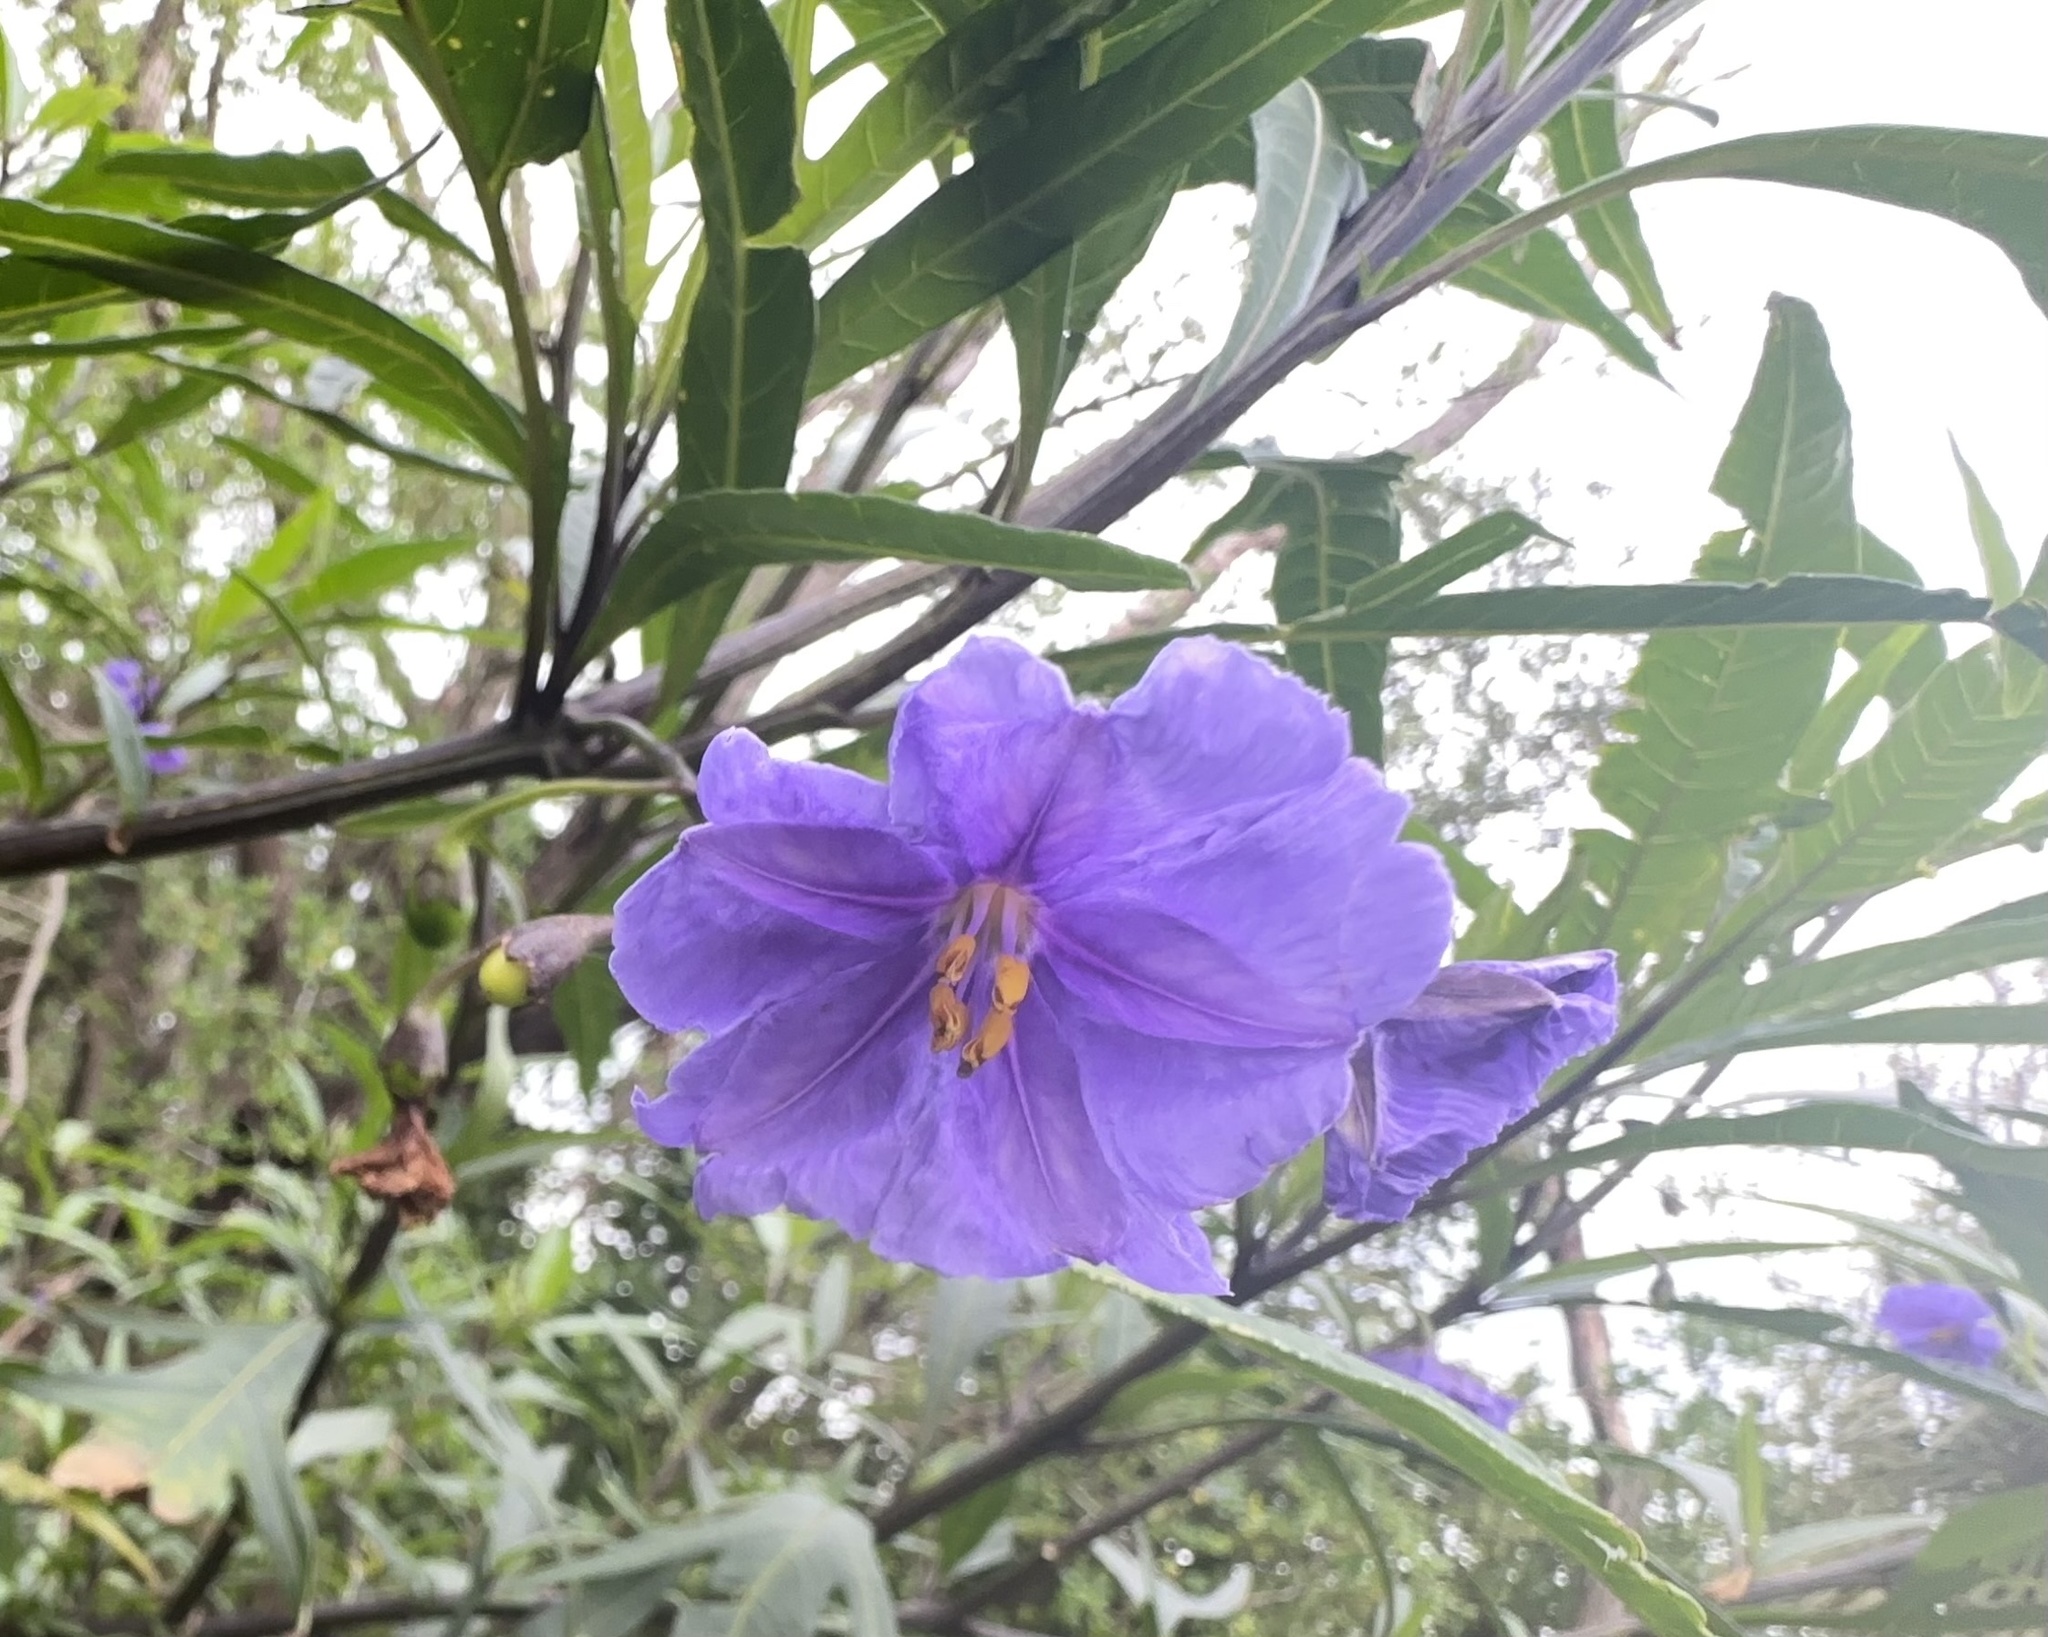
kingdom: Plantae
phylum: Tracheophyta
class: Magnoliopsida
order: Solanales
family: Solanaceae
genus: Solanum
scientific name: Solanum laciniatum
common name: Kangaroo-apple
